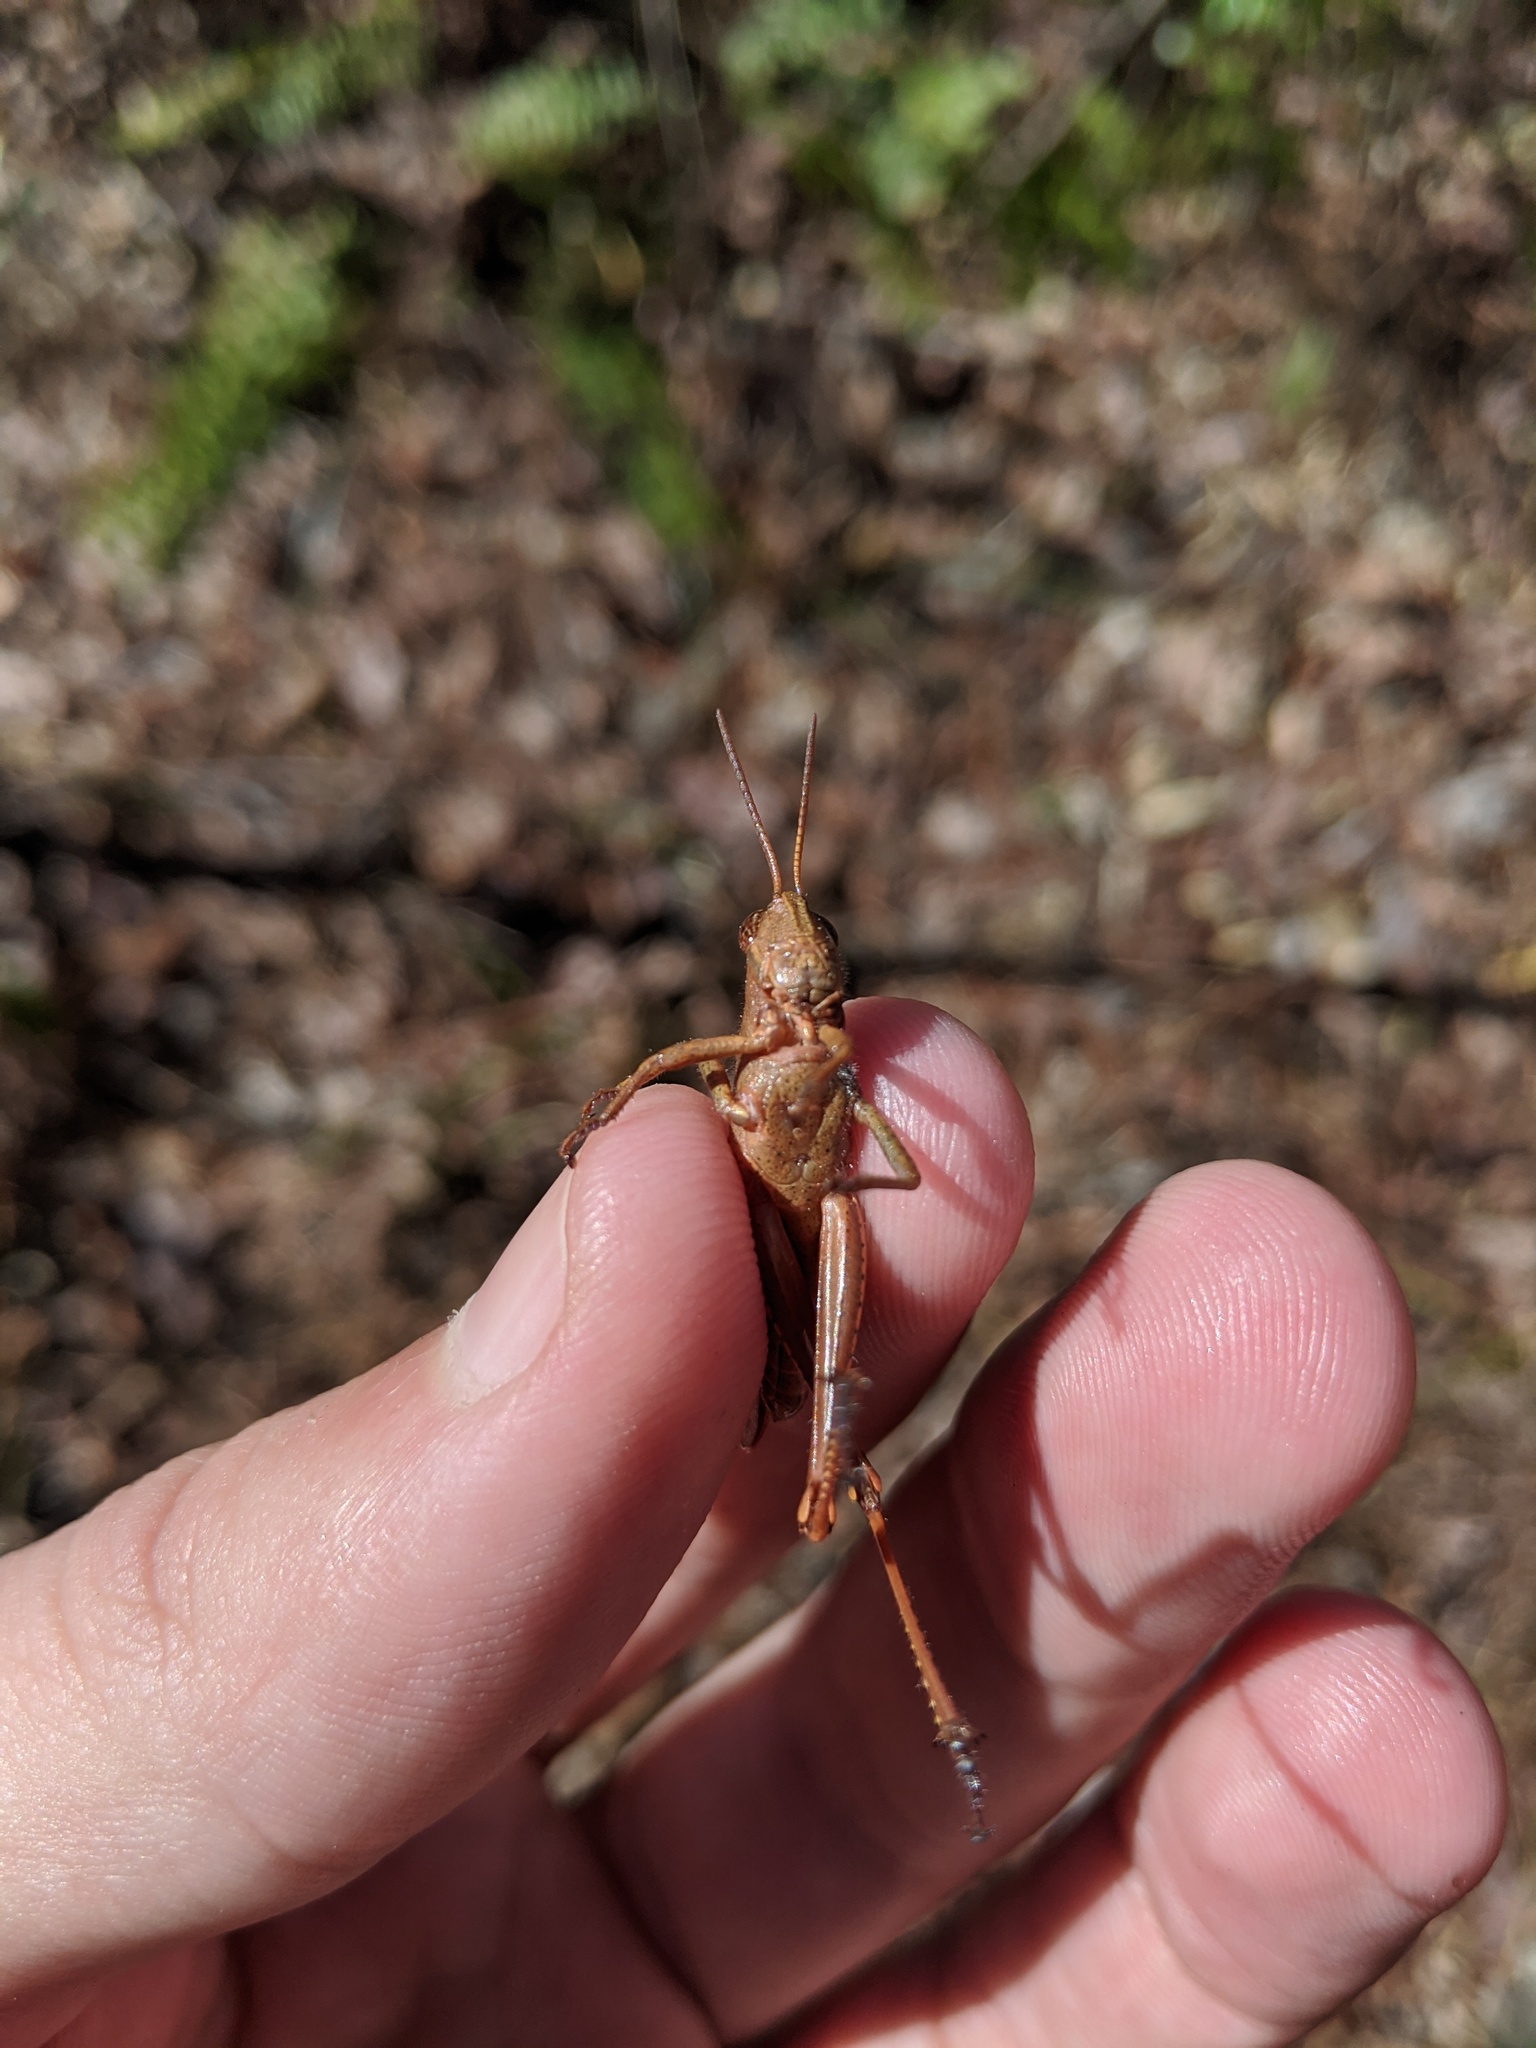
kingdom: Animalia
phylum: Arthropoda
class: Insecta
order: Orthoptera
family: Acrididae
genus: Schistocerca
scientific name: Schistocerca damnifica
